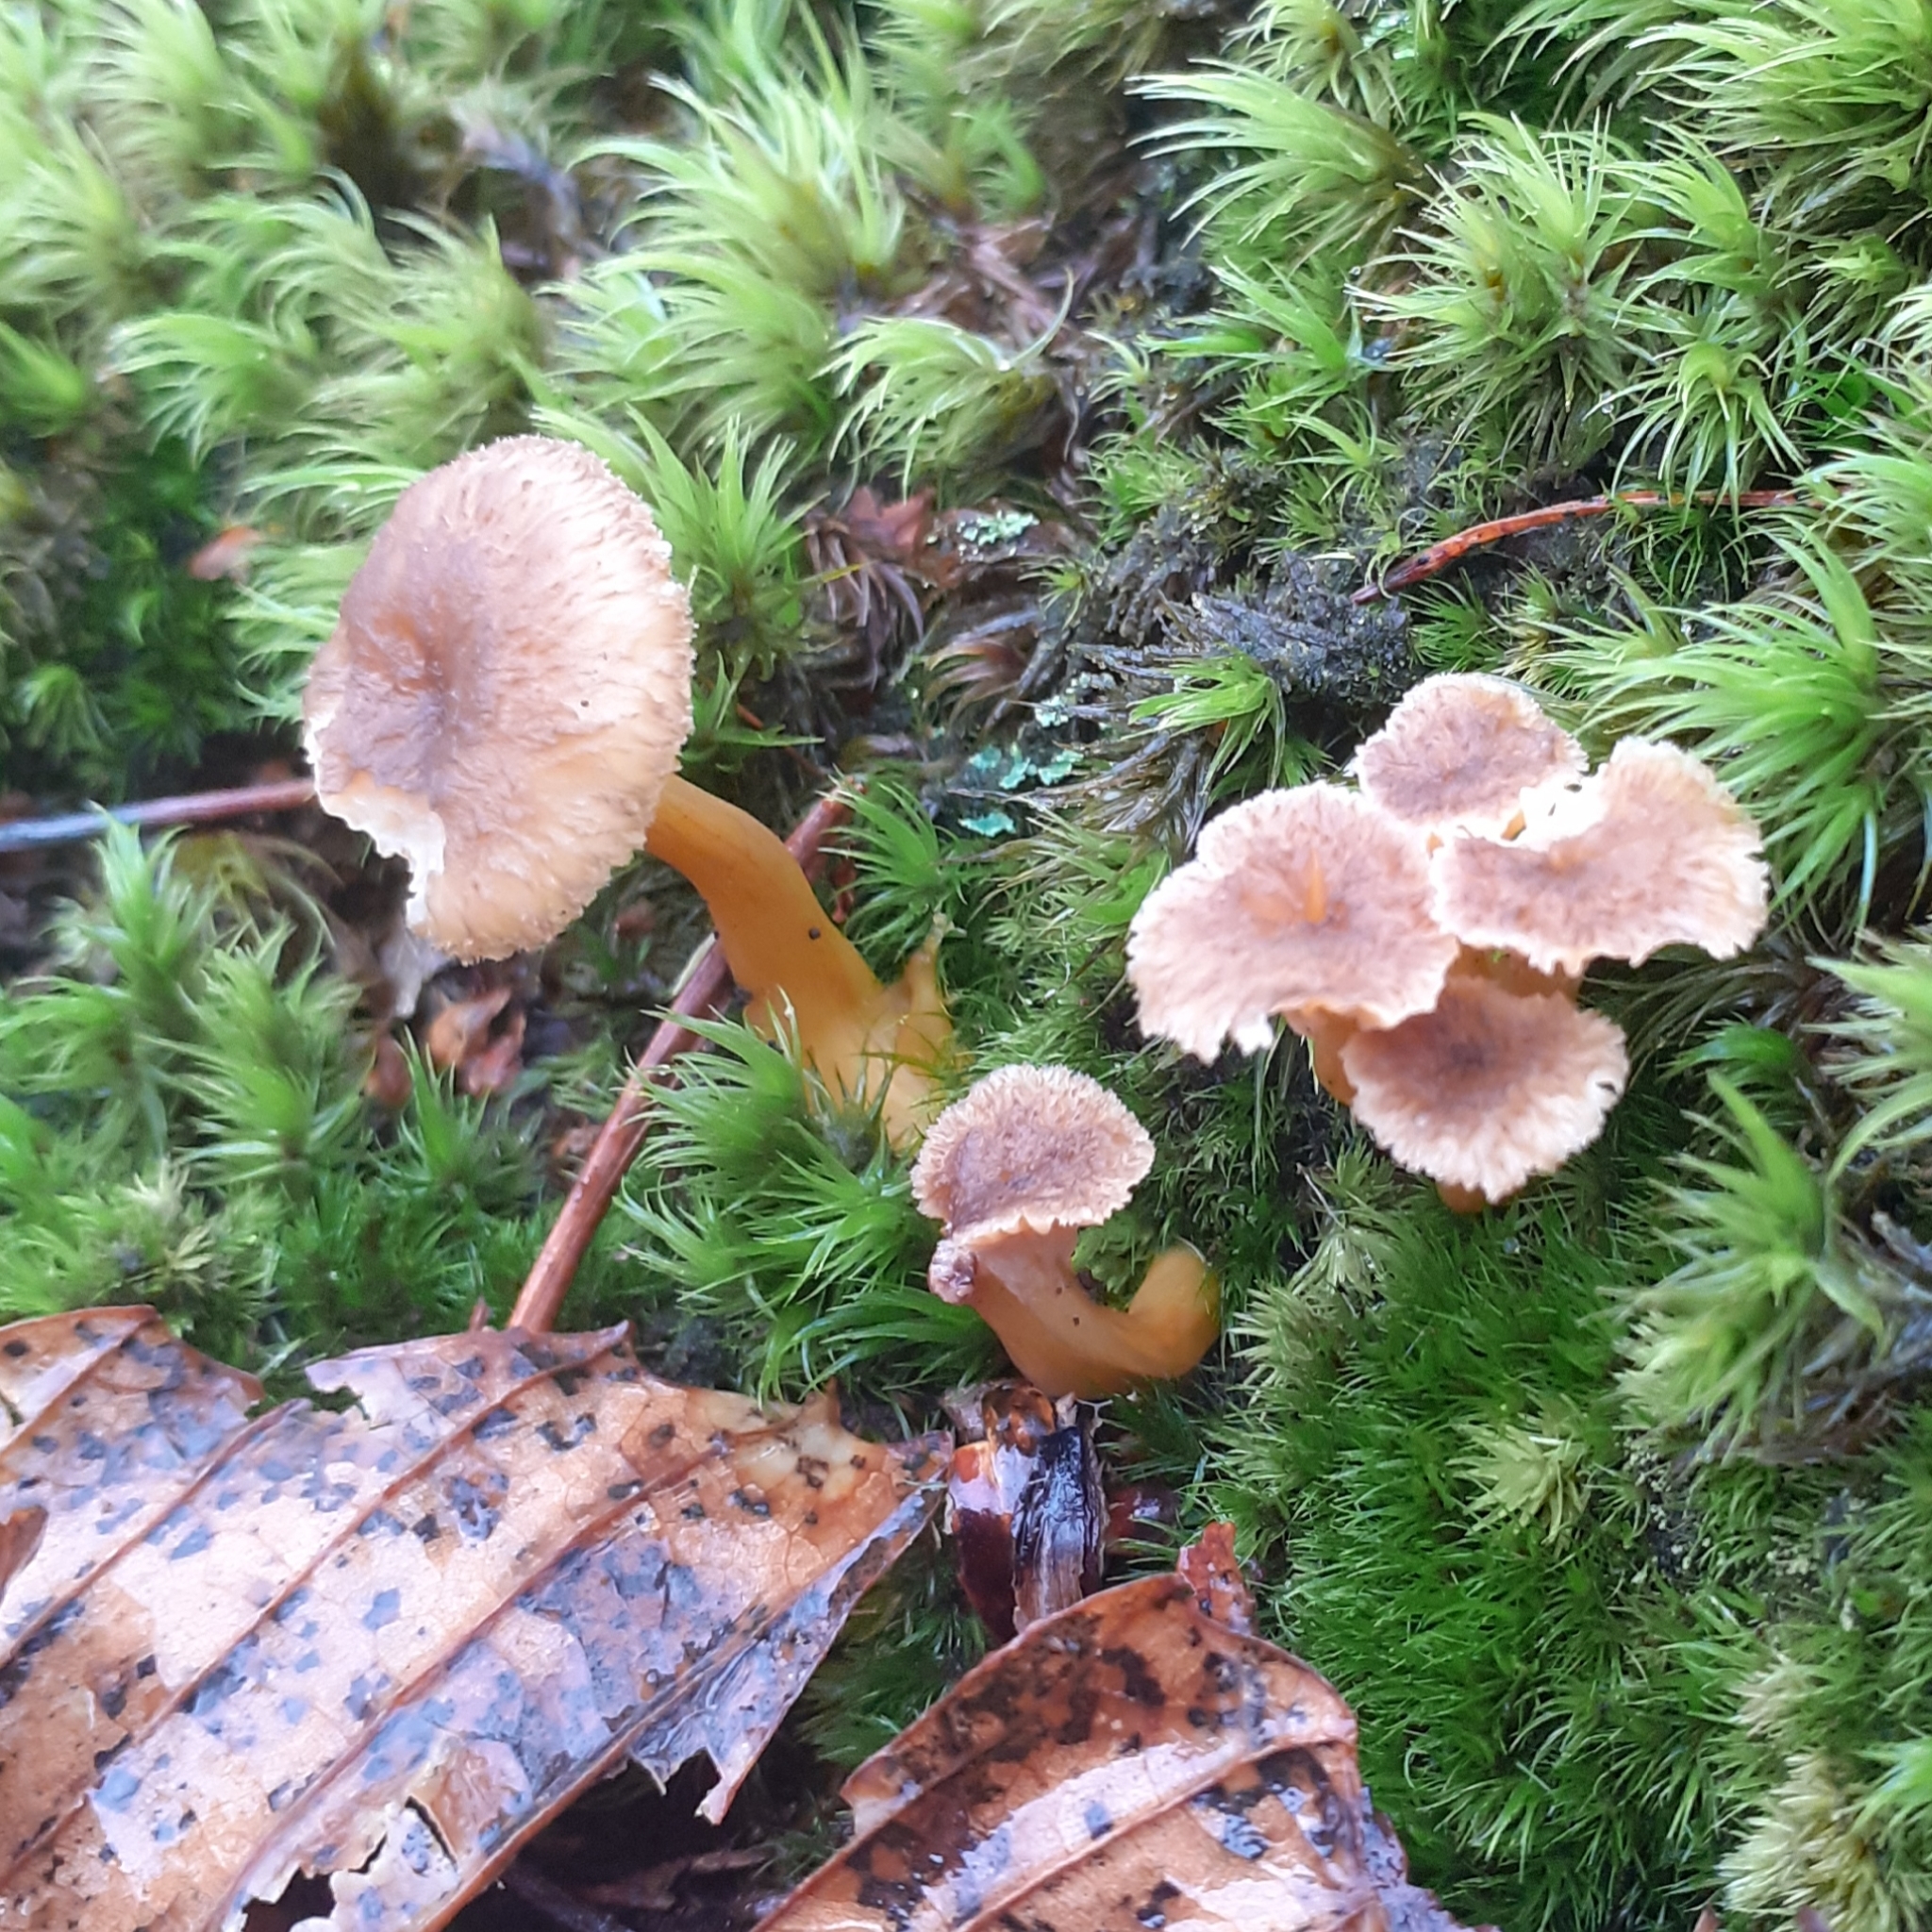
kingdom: Fungi
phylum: Basidiomycota
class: Agaricomycetes
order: Cantharellales
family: Hydnaceae
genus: Craterellus
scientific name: Craterellus tubaeformis
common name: Yellowfoot
